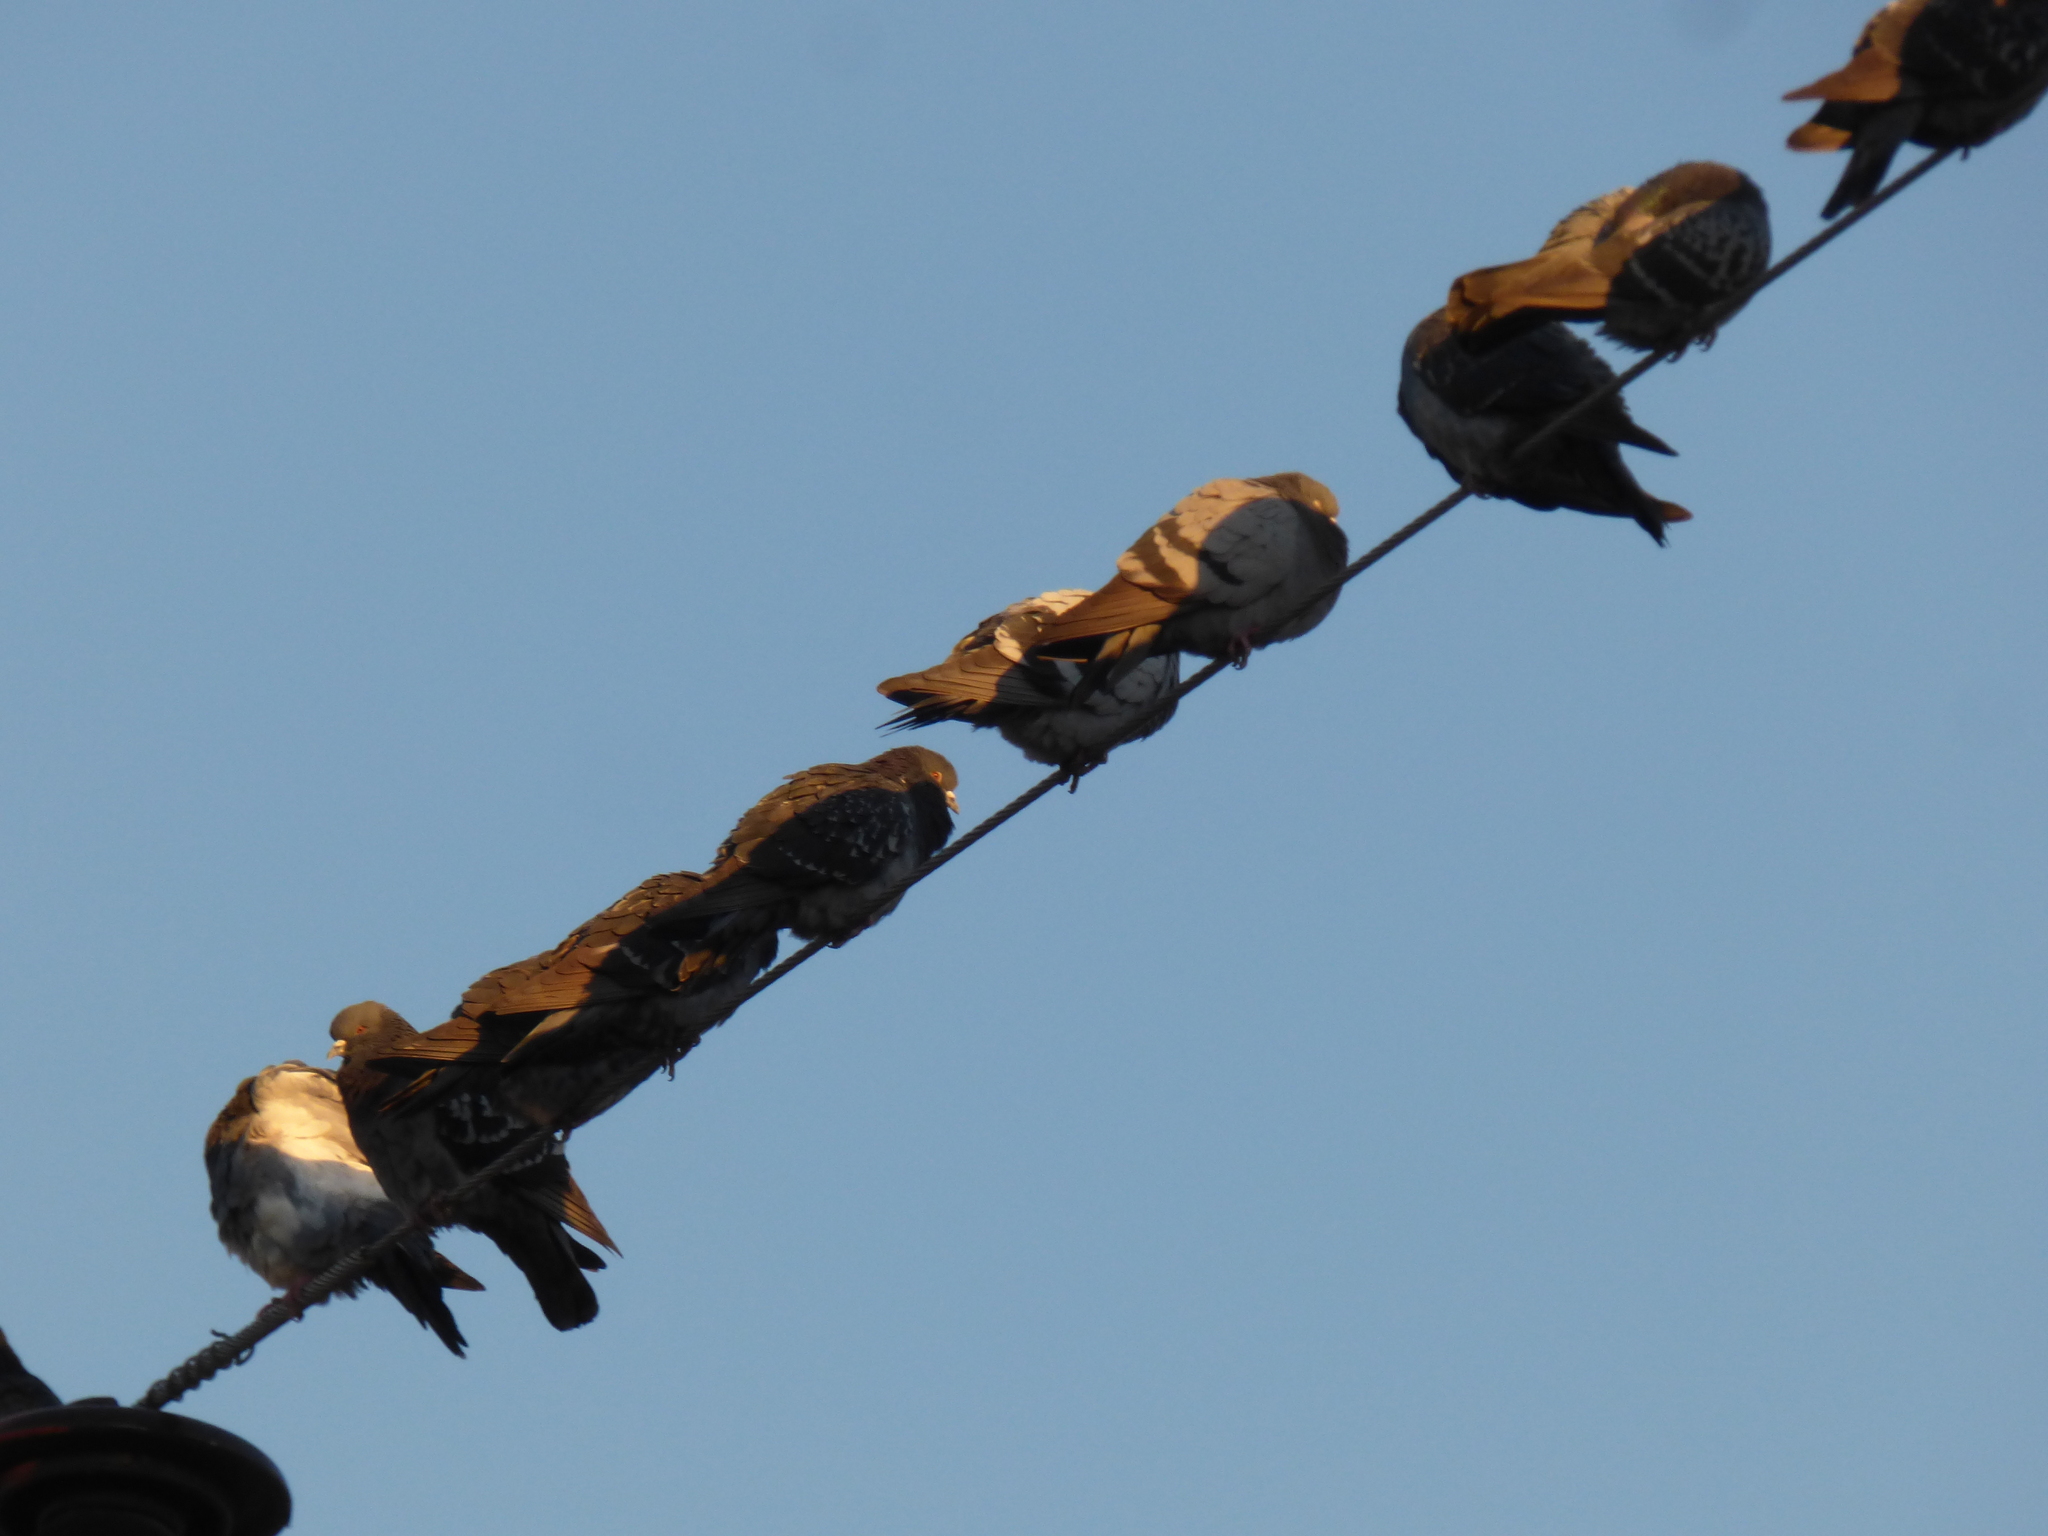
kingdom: Animalia
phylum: Chordata
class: Aves
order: Columbiformes
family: Columbidae
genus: Columba
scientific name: Columba livia
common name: Rock pigeon
